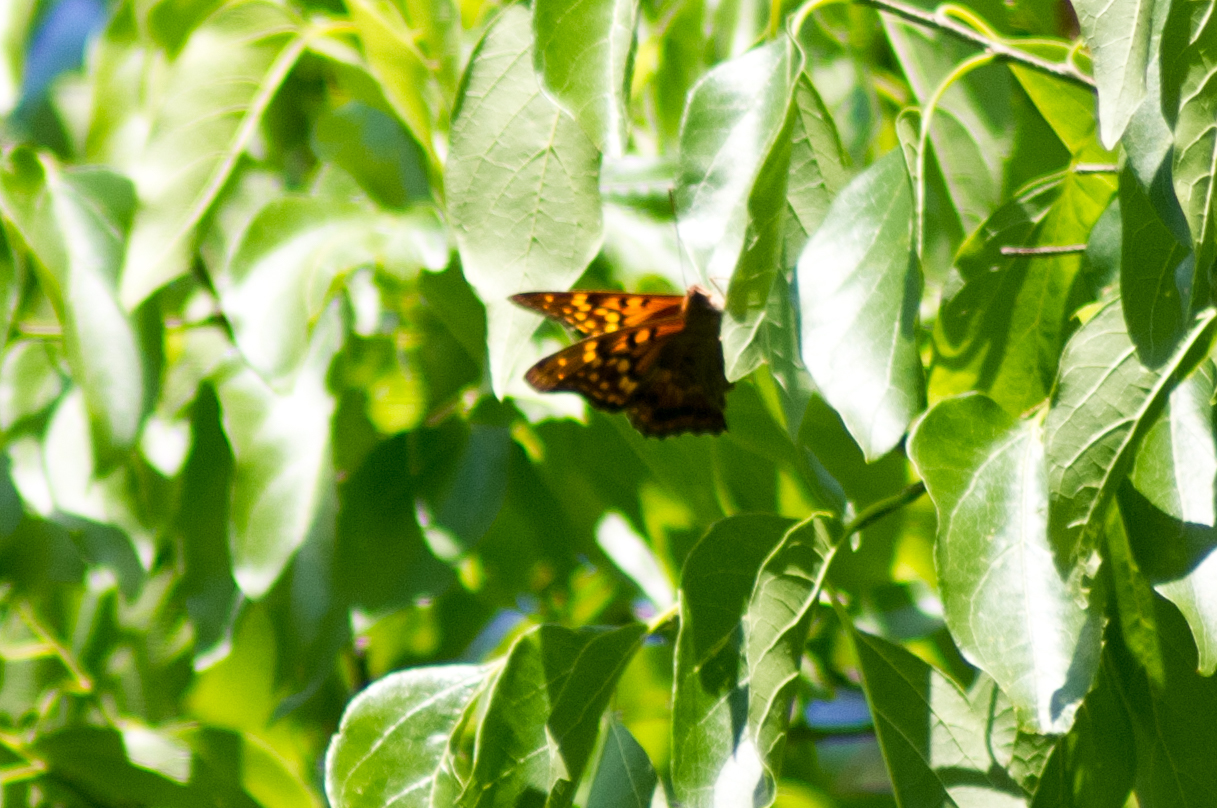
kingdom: Animalia
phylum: Arthropoda
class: Insecta
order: Lepidoptera
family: Nymphalidae
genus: Asterocampa
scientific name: Asterocampa clyton
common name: Tawny emperor
